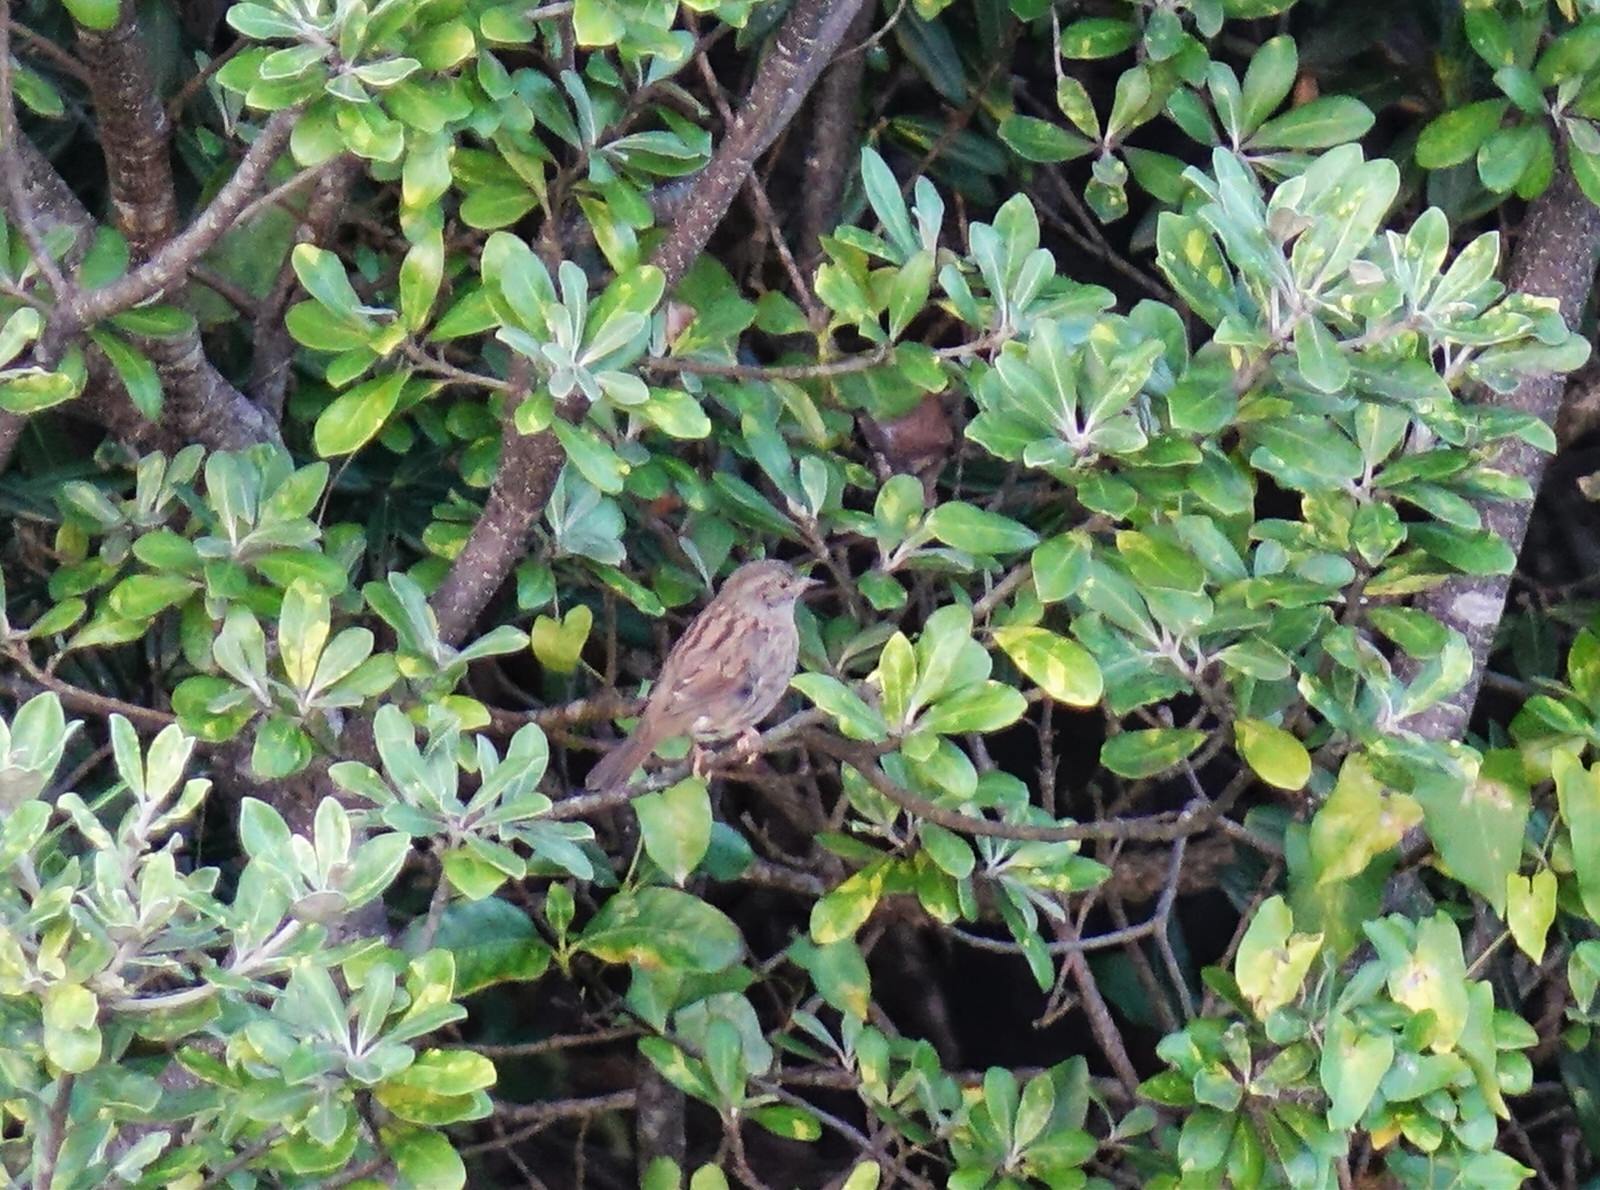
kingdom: Animalia
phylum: Chordata
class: Aves
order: Passeriformes
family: Prunellidae
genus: Prunella
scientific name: Prunella modularis
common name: Dunnock
